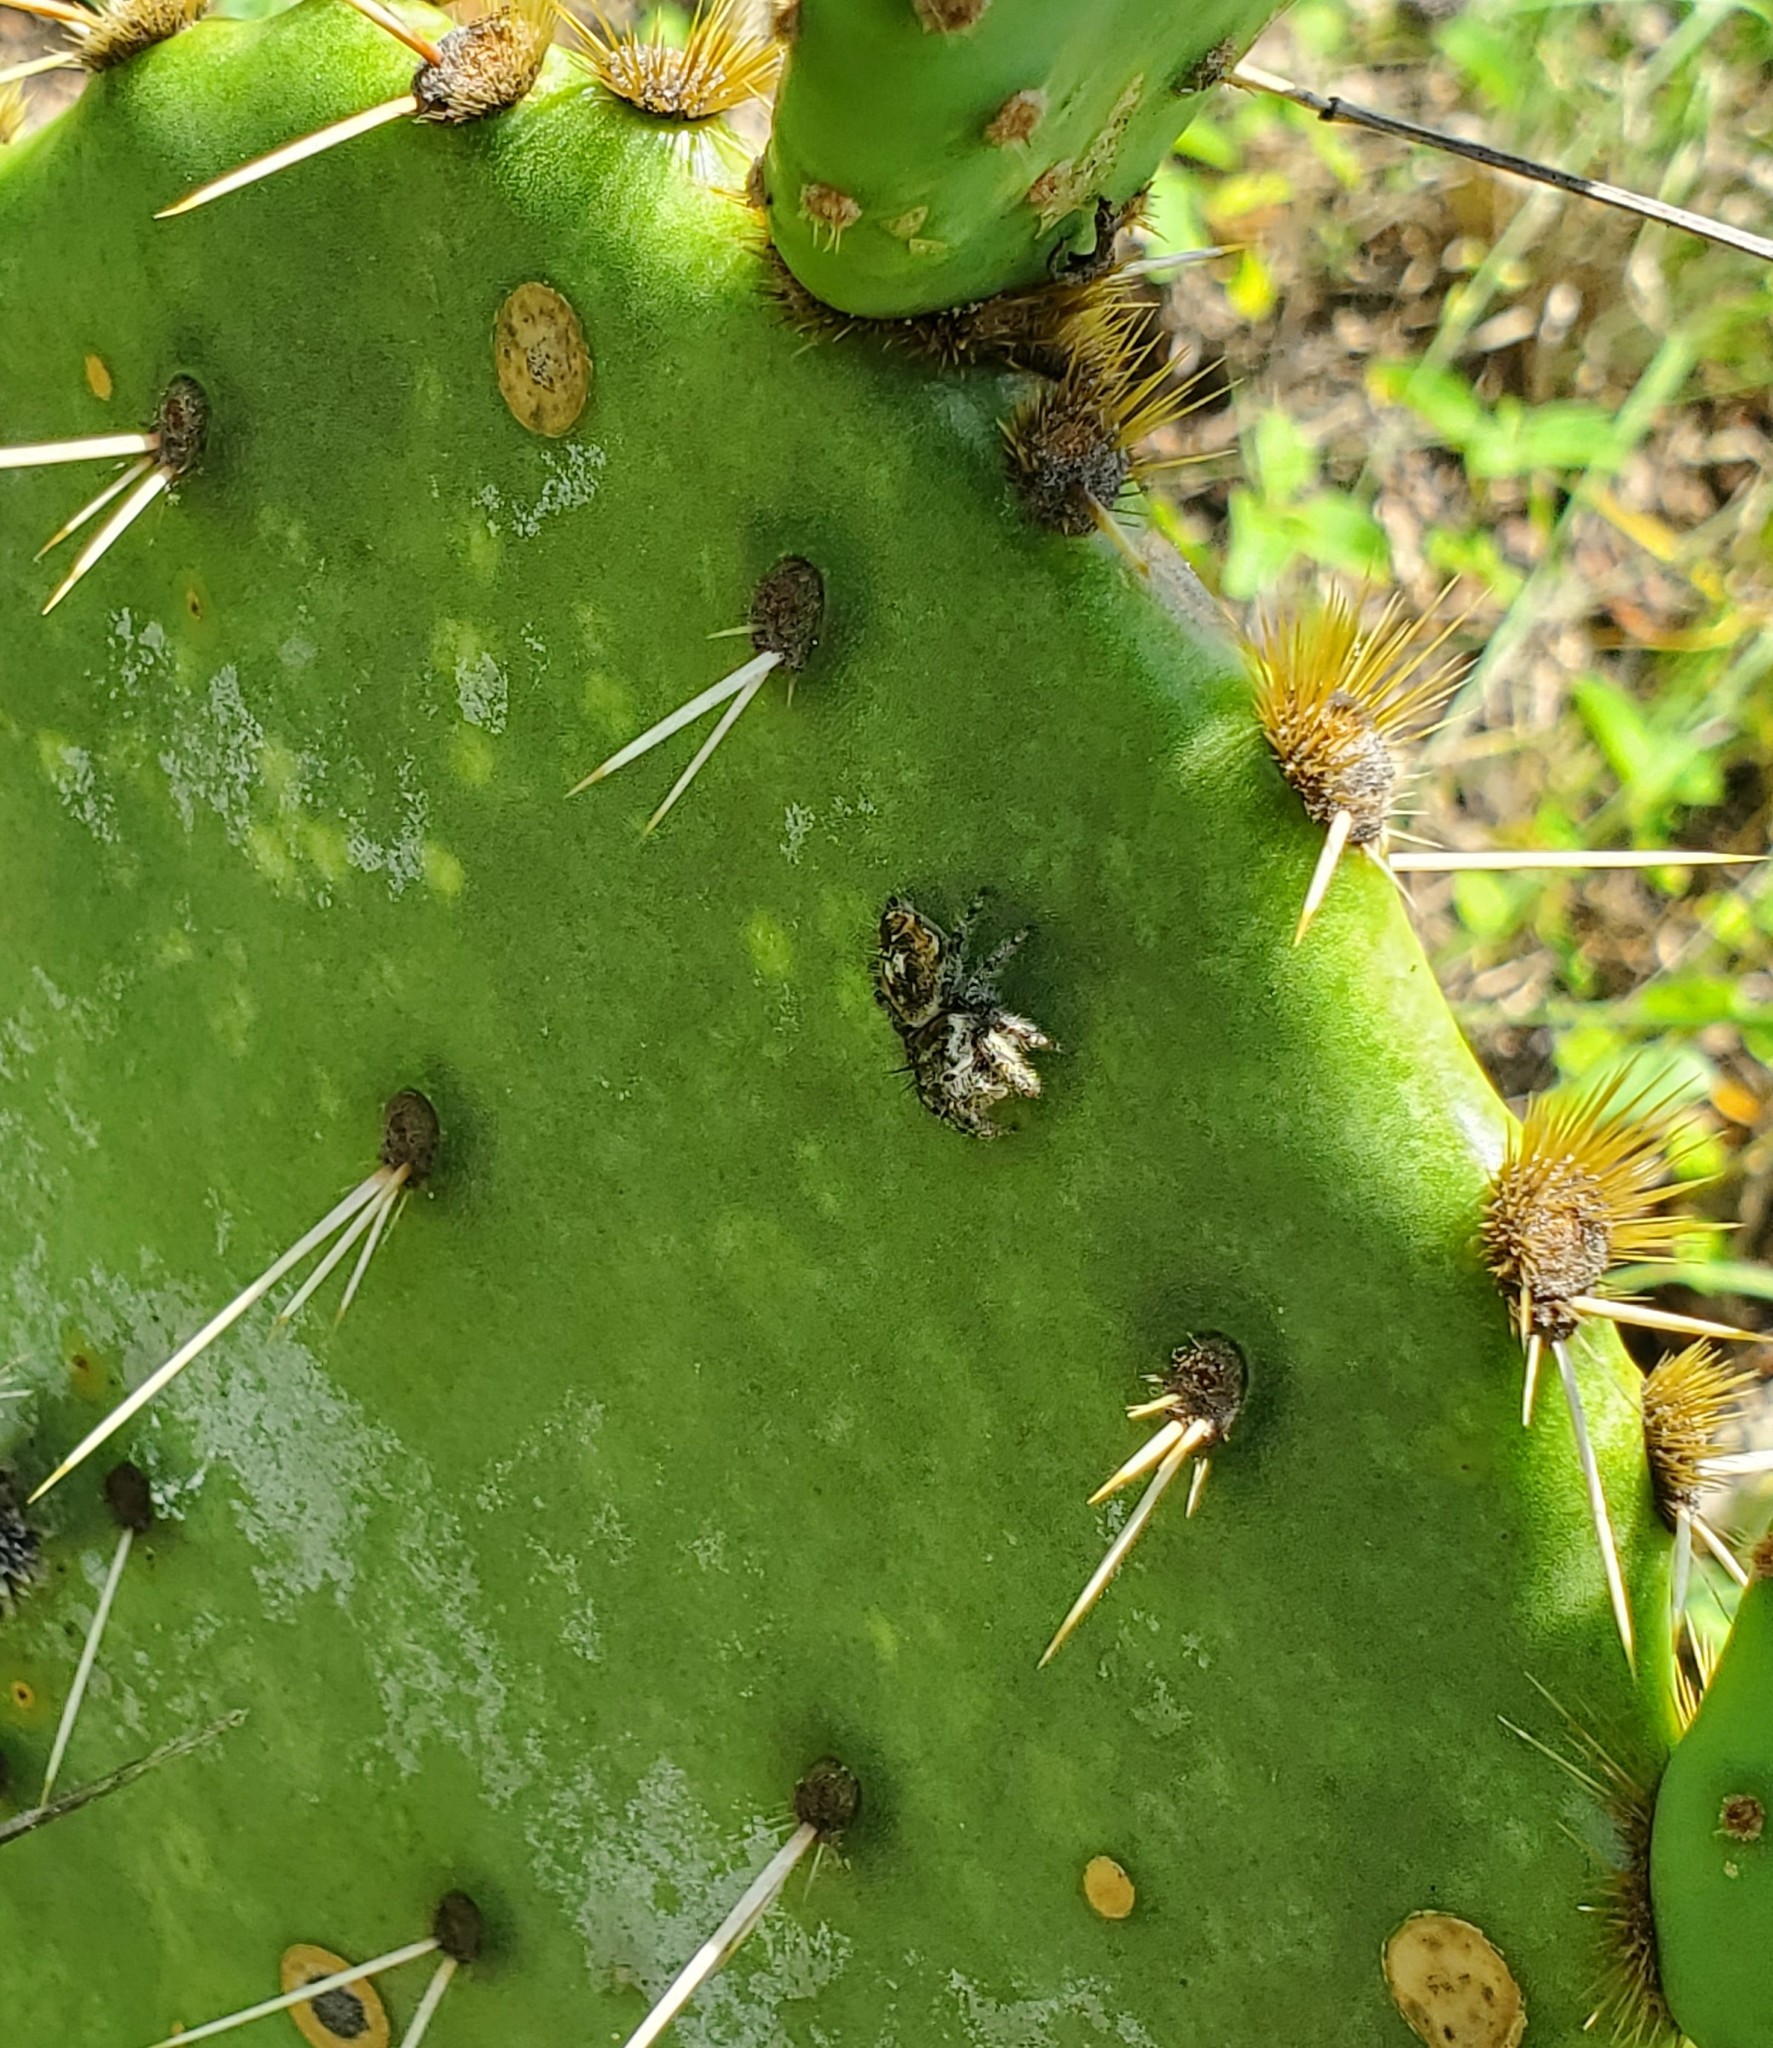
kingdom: Animalia
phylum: Arthropoda
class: Arachnida
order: Araneae
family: Salticidae
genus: Phidippus
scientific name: Phidippus arizonensis
